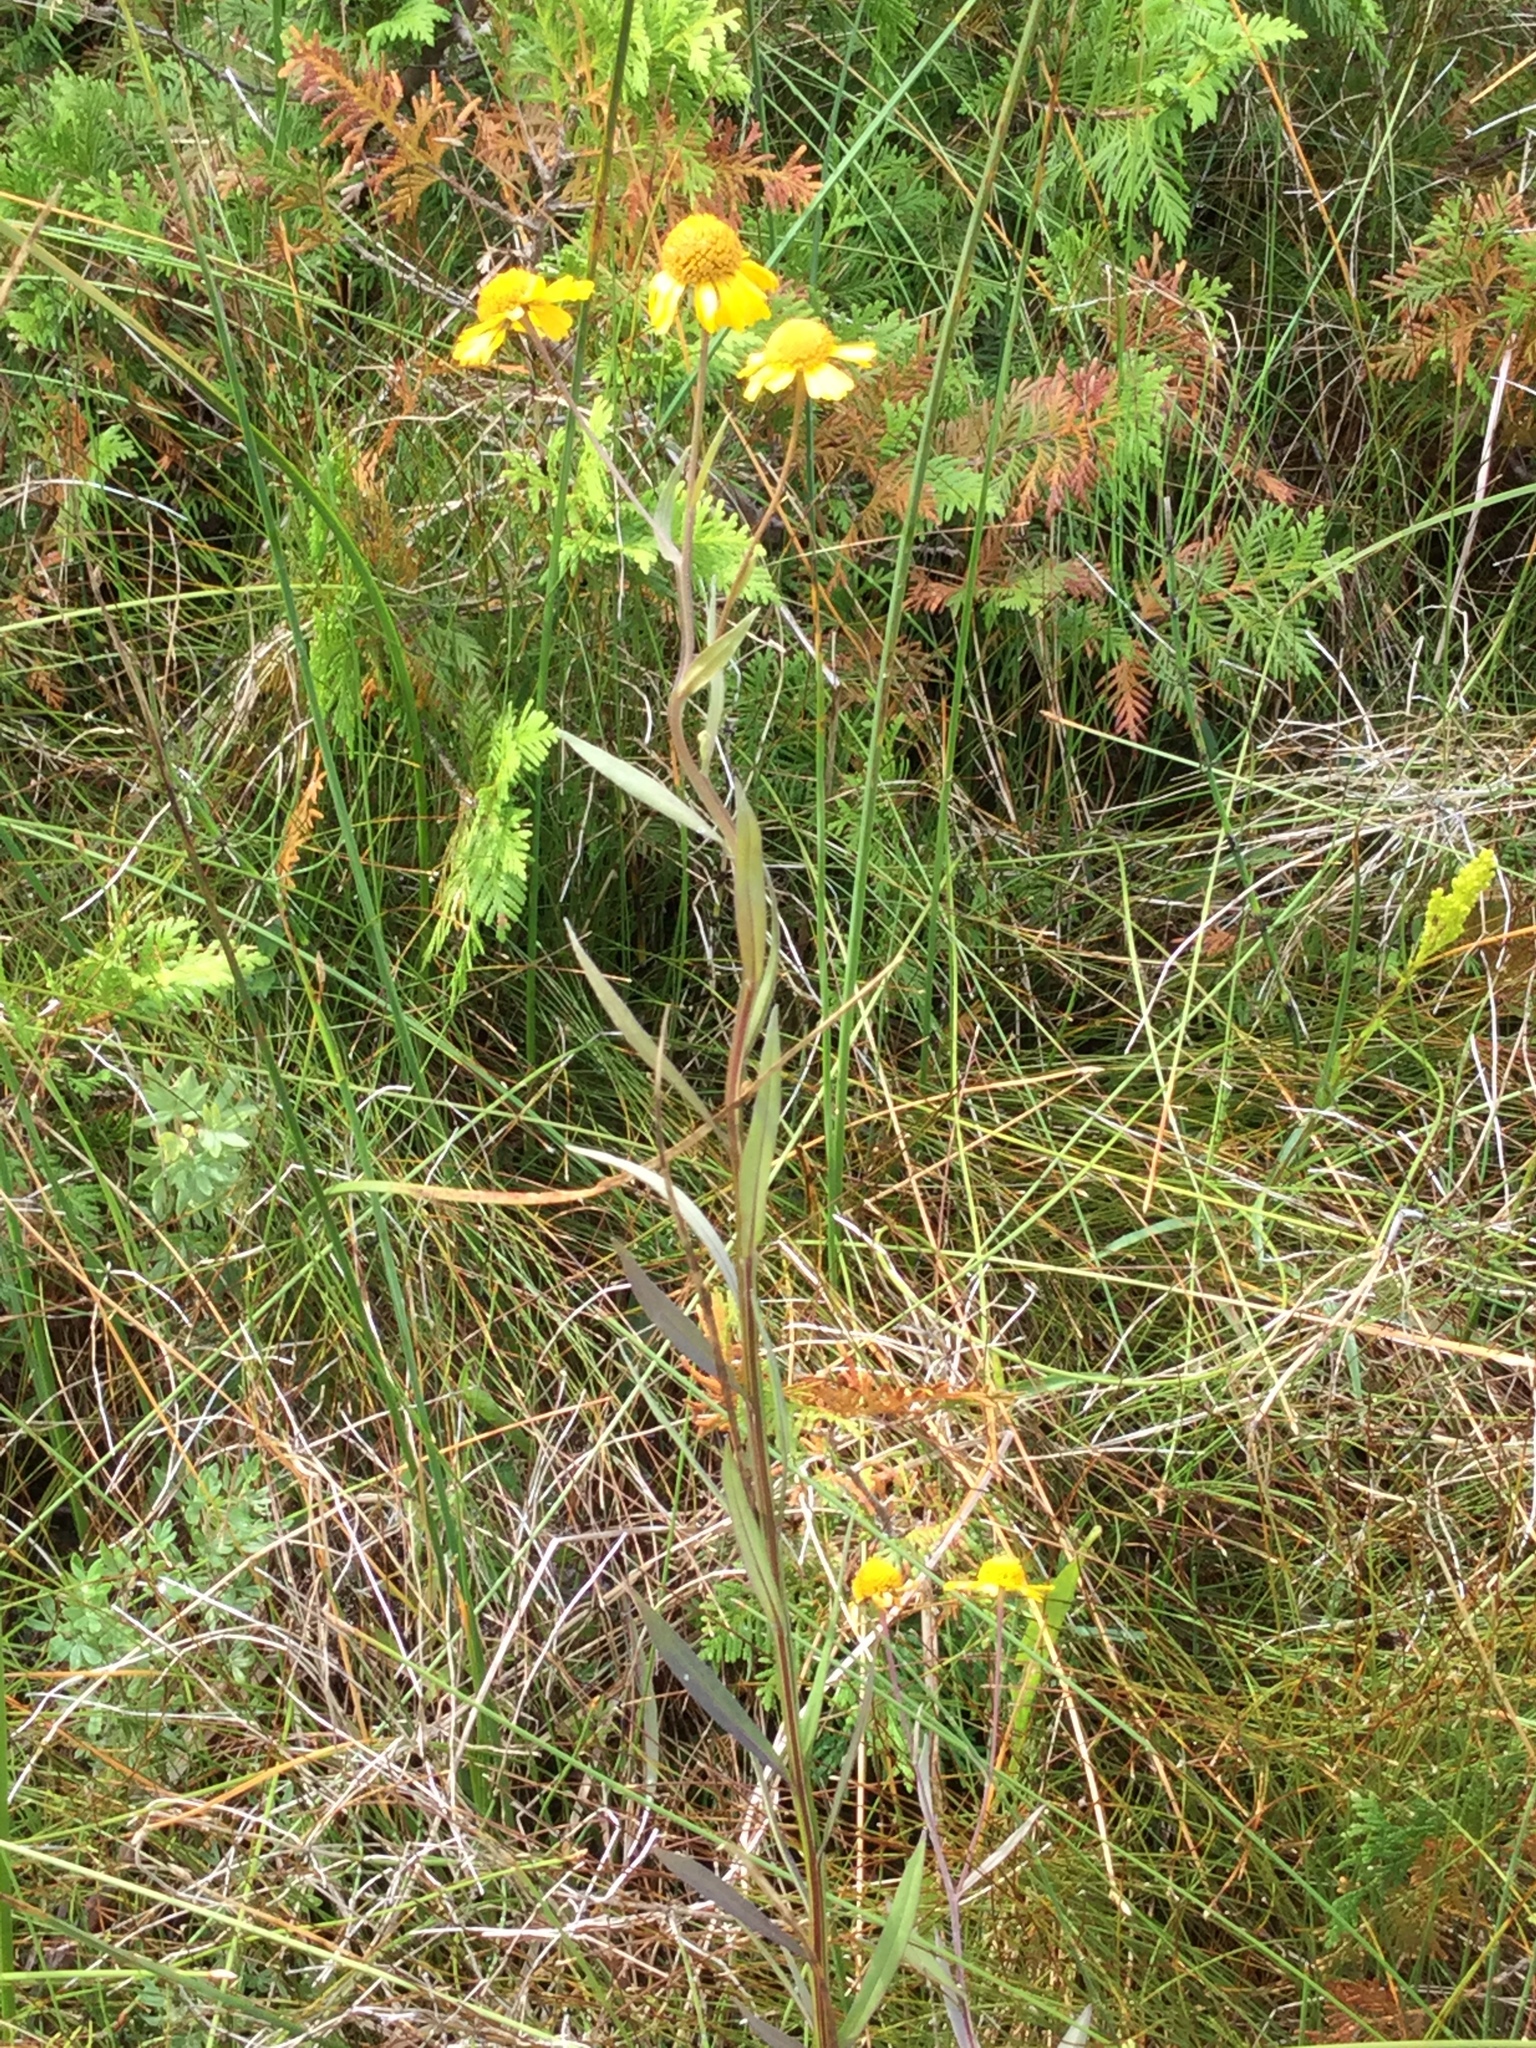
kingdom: Plantae
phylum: Tracheophyta
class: Magnoliopsida
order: Asterales
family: Asteraceae
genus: Helenium
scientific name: Helenium autumnale
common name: Sneezeweed
